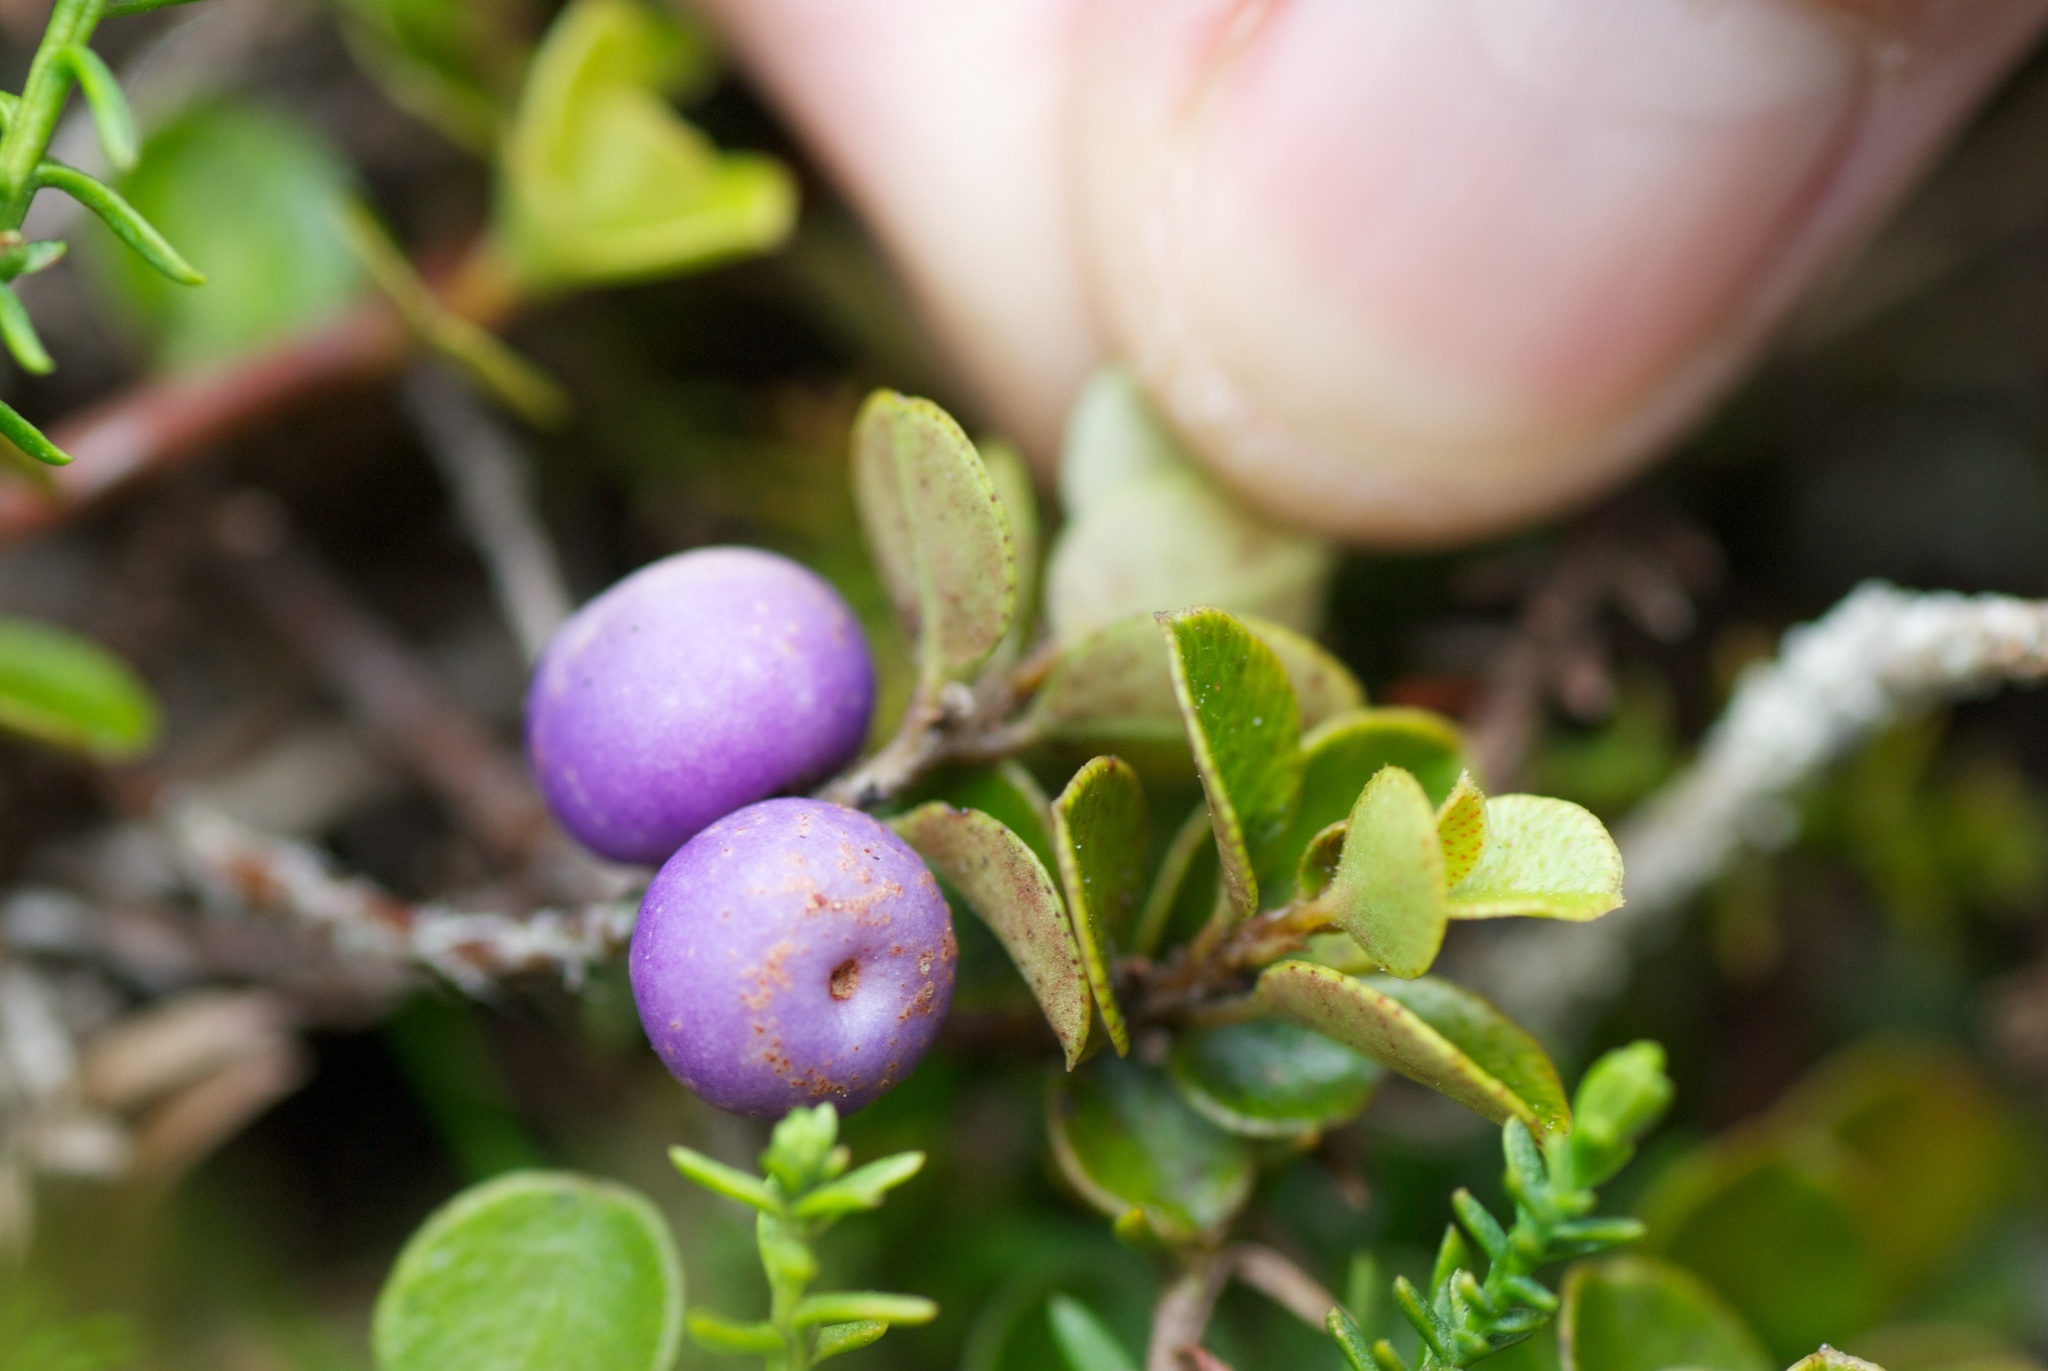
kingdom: Plantae
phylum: Tracheophyta
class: Magnoliopsida
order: Ericales
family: Primulaceae
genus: Myrsine
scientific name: Myrsine nummularia
